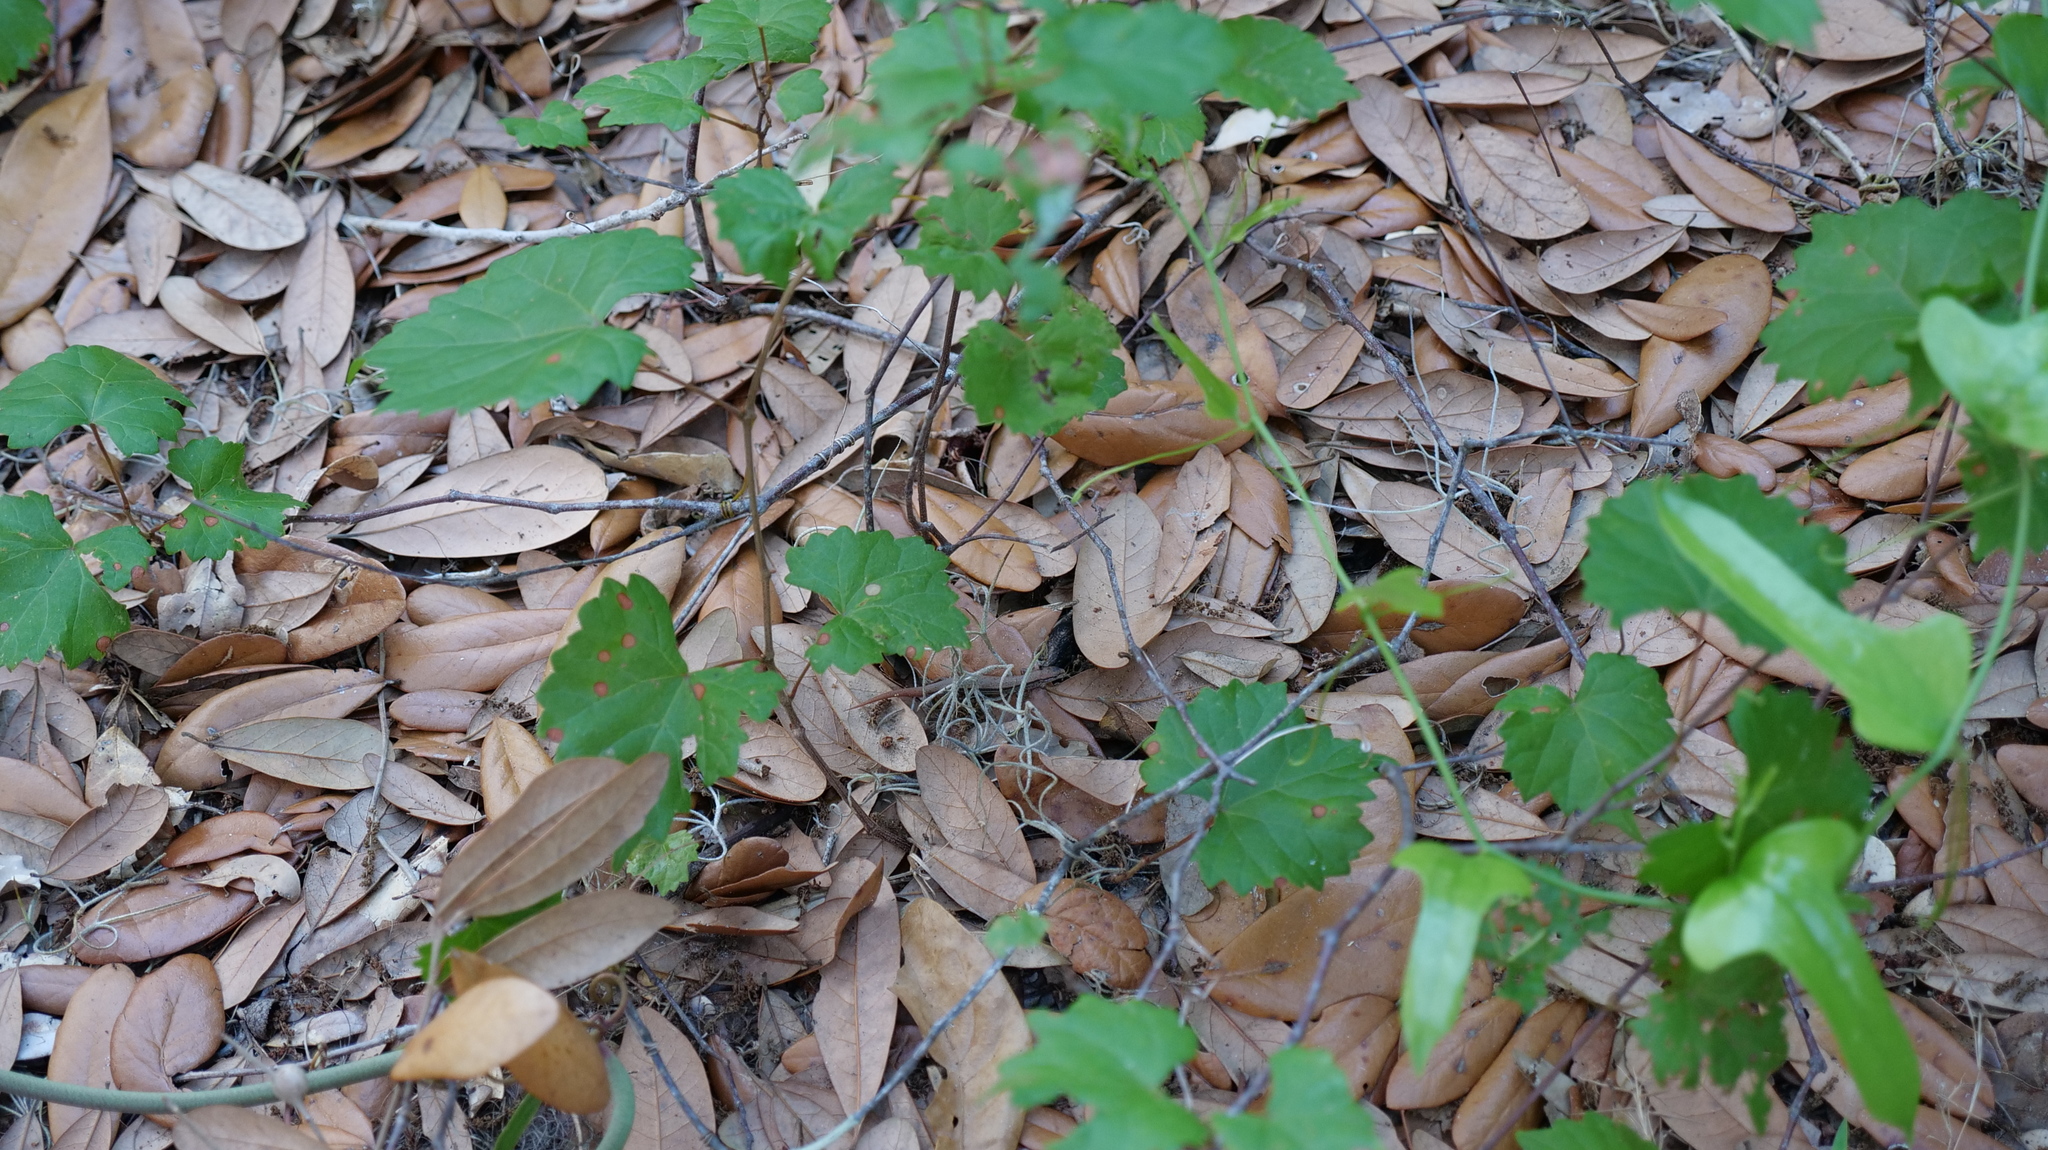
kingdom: Animalia
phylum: Chordata
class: Squamata
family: Scincidae
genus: Scincella
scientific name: Scincella lateralis
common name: Ground skink
